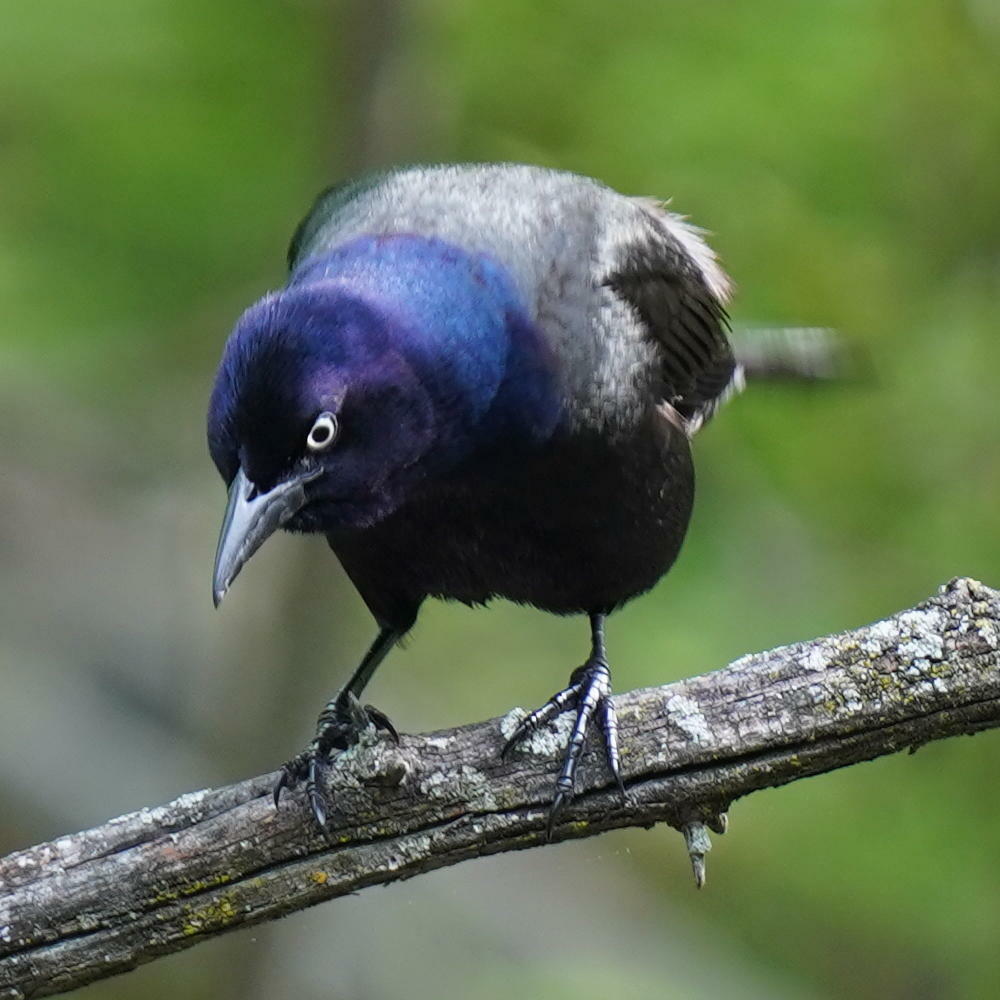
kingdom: Animalia
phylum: Chordata
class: Aves
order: Passeriformes
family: Icteridae
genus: Quiscalus
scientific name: Quiscalus quiscula
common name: Common grackle
